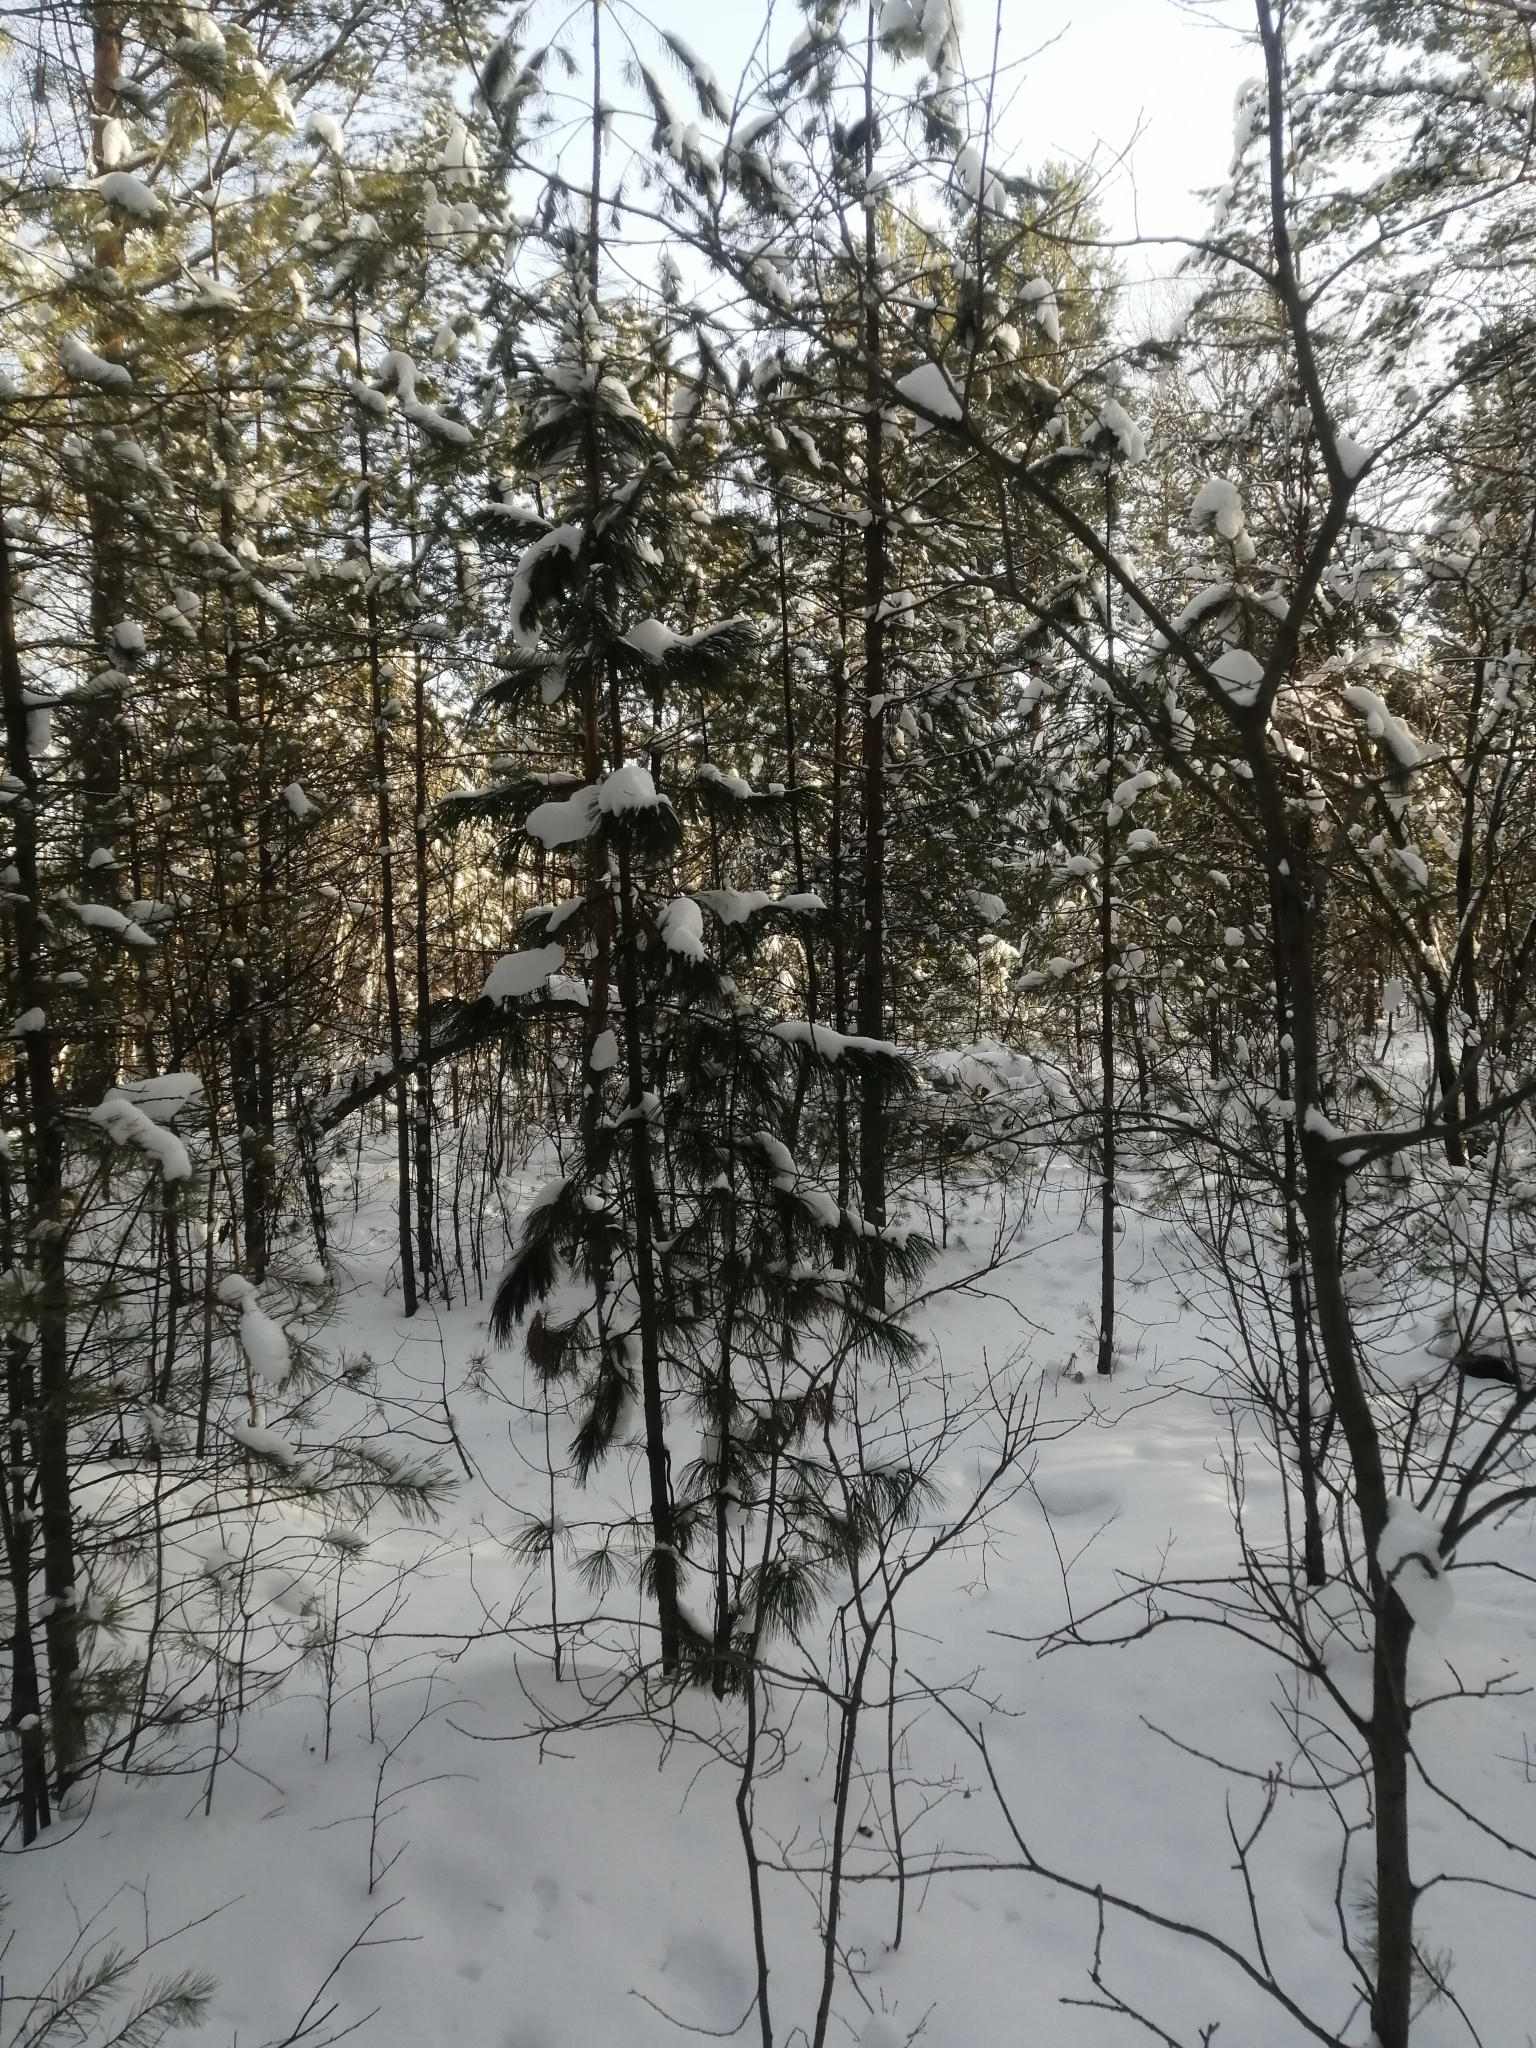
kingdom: Plantae
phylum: Tracheophyta
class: Pinopsida
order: Pinales
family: Pinaceae
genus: Pinus
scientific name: Pinus sibirica
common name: Siberian pine
